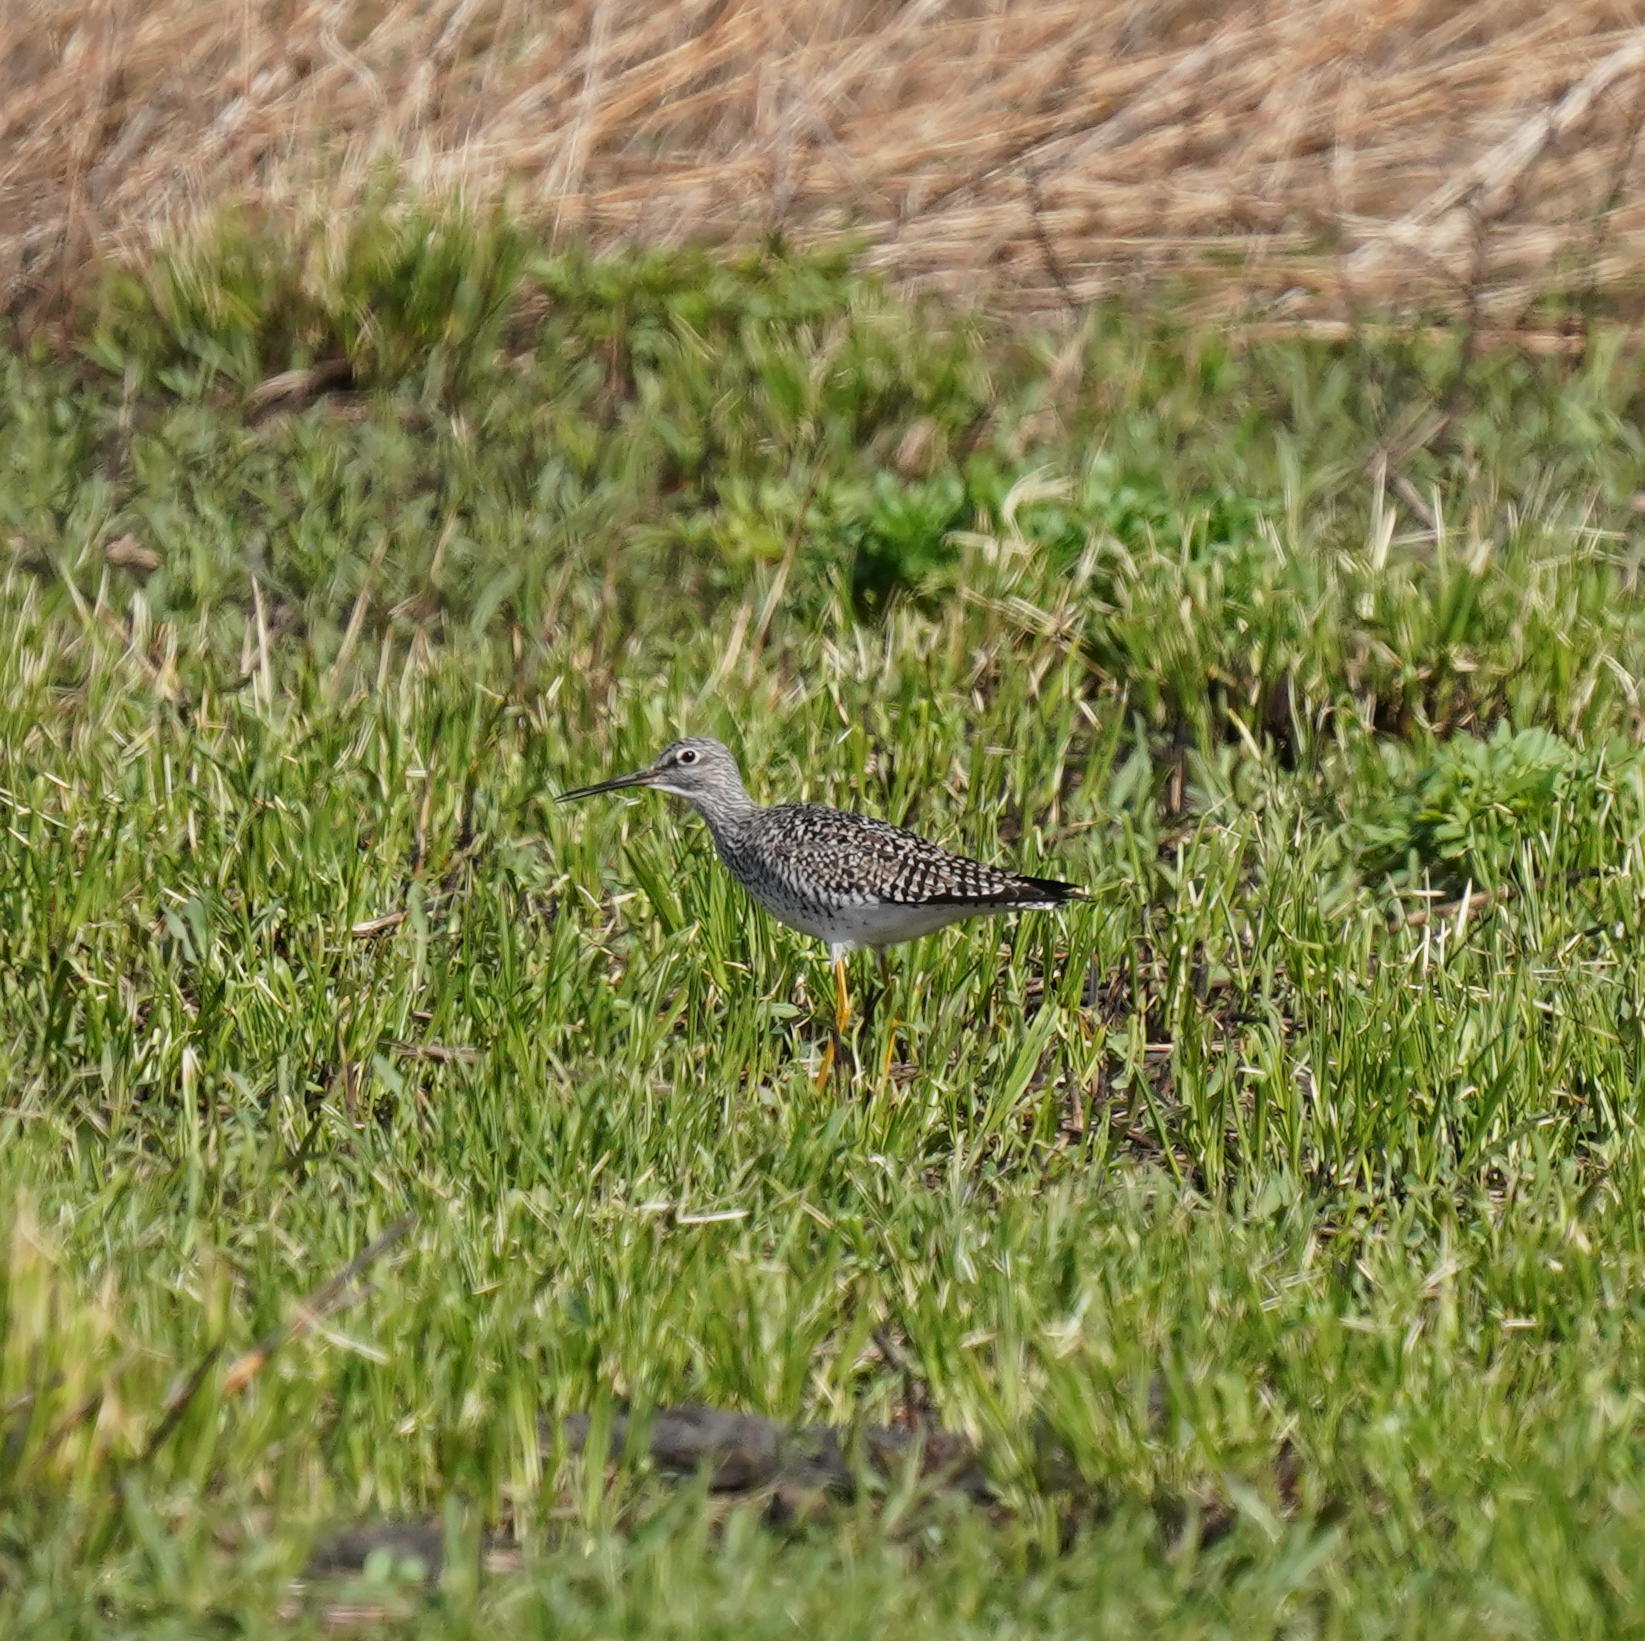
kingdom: Animalia
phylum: Chordata
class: Aves
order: Charadriiformes
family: Scolopacidae
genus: Tringa
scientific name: Tringa melanoleuca
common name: Greater yellowlegs
